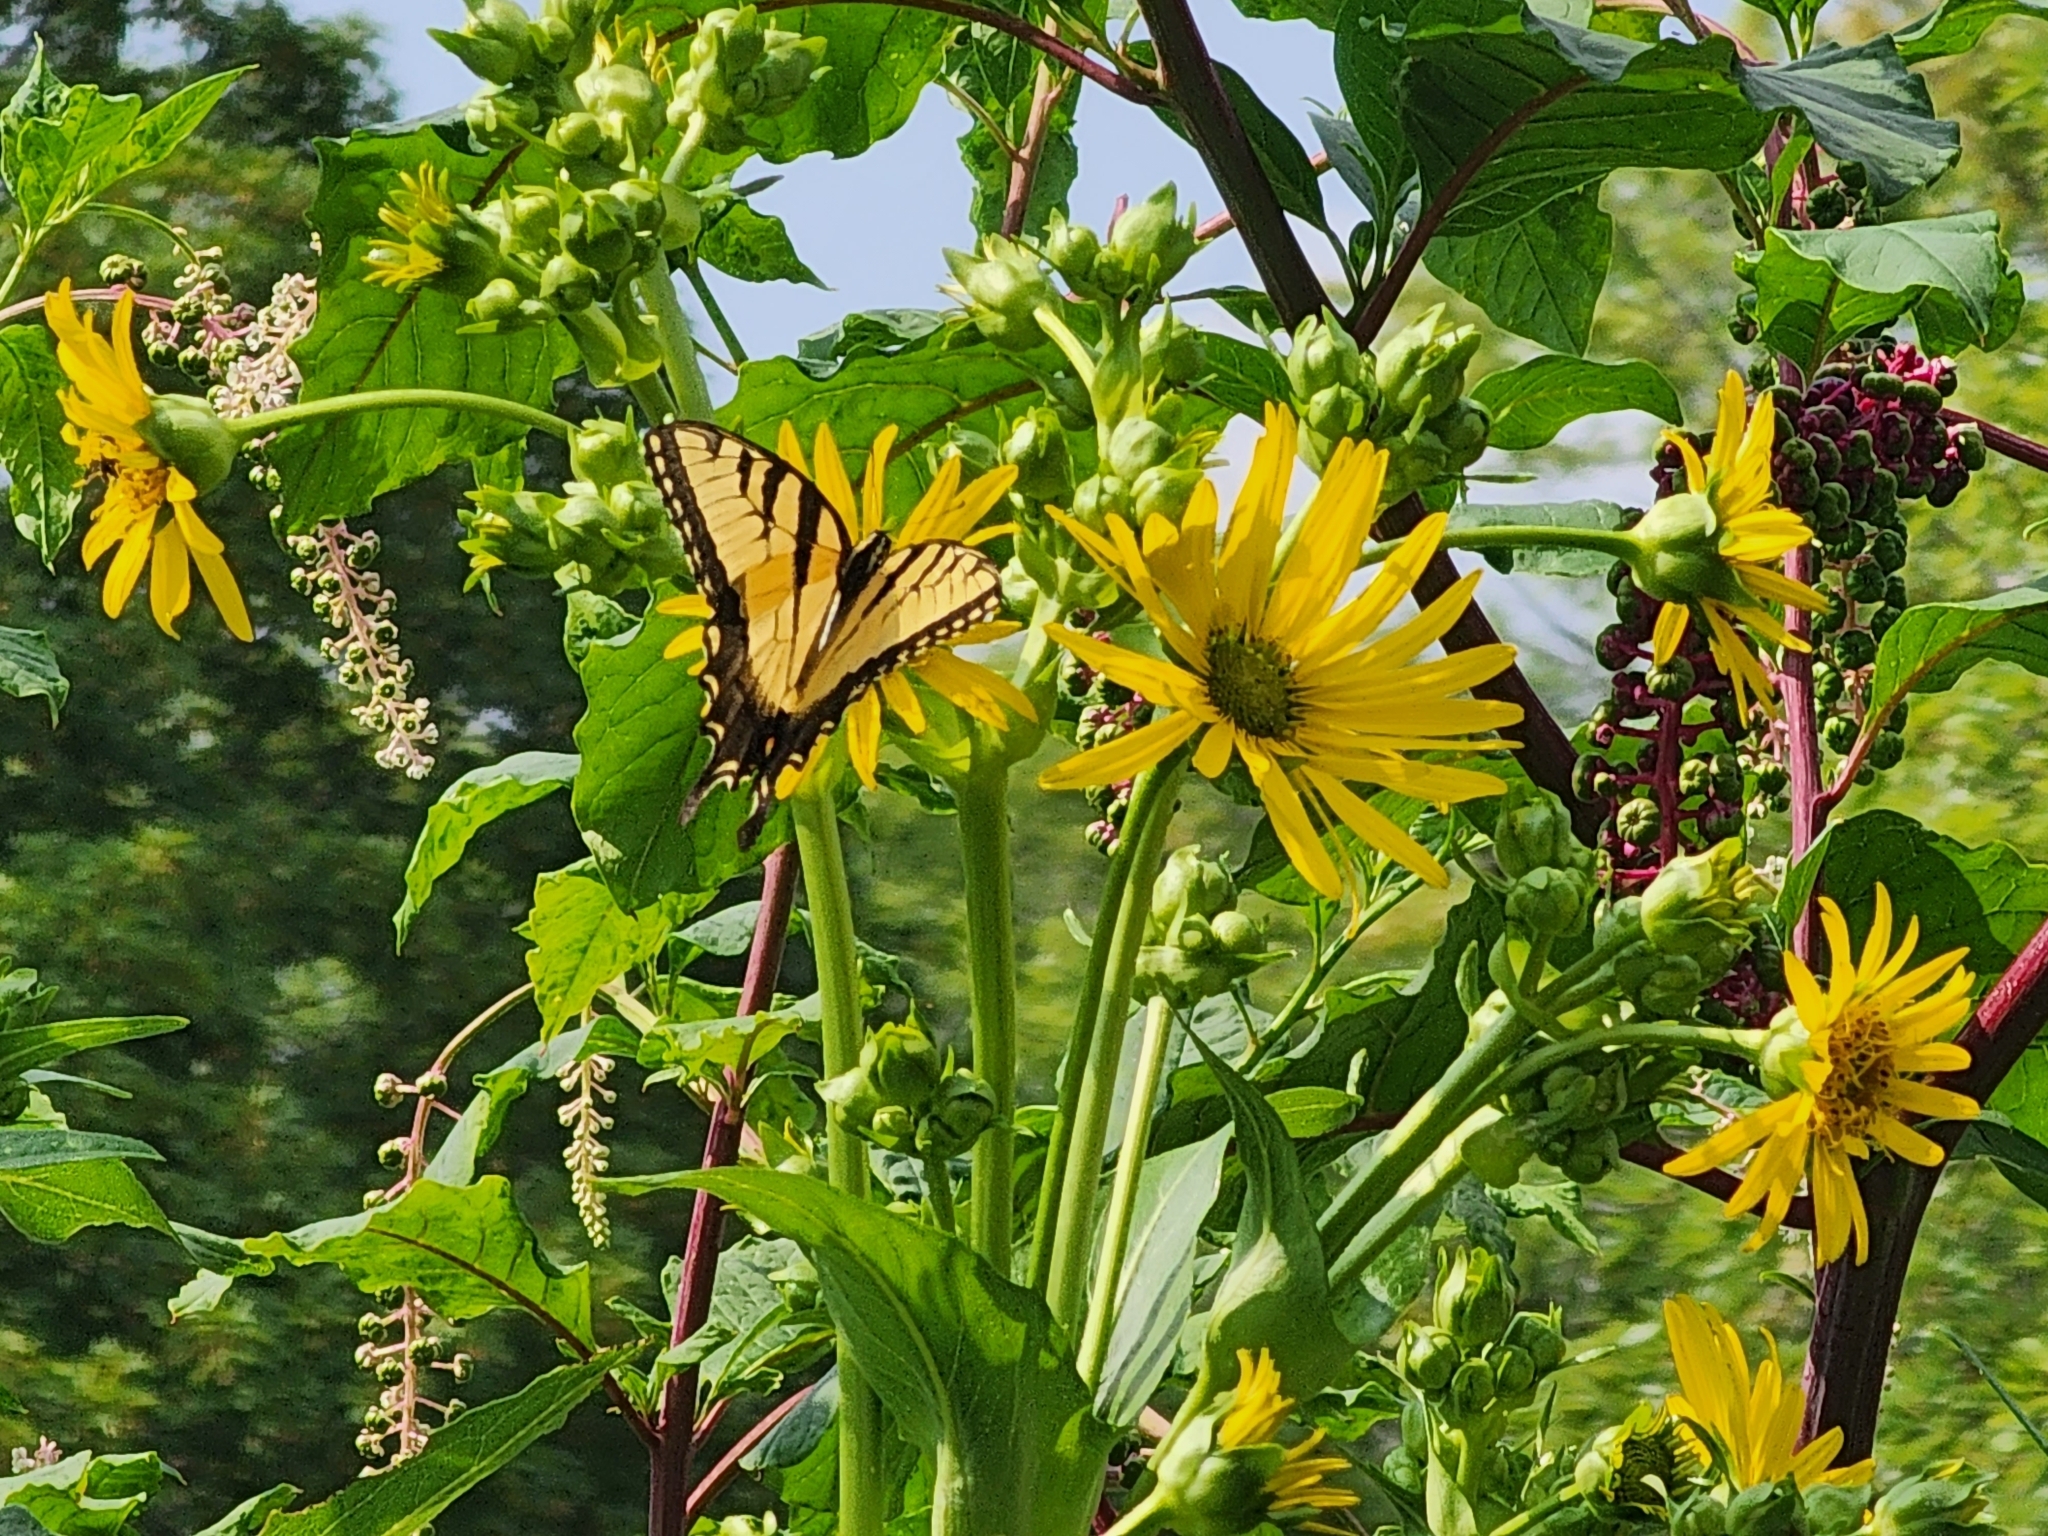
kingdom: Animalia
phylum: Arthropoda
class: Insecta
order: Lepidoptera
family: Papilionidae
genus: Papilio
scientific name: Papilio glaucus
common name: Tiger swallowtail
